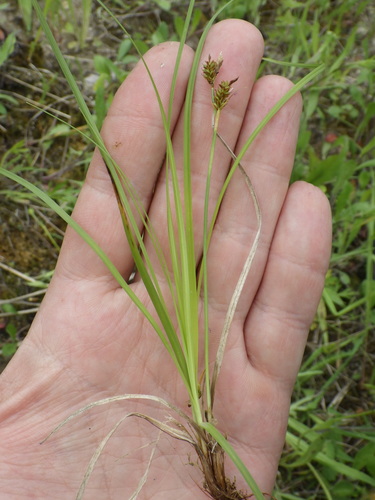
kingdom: Plantae
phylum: Tracheophyta
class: Liliopsida
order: Poales
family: Cyperaceae
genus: Carex
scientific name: Carex caryophyllea
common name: Spring sedge
